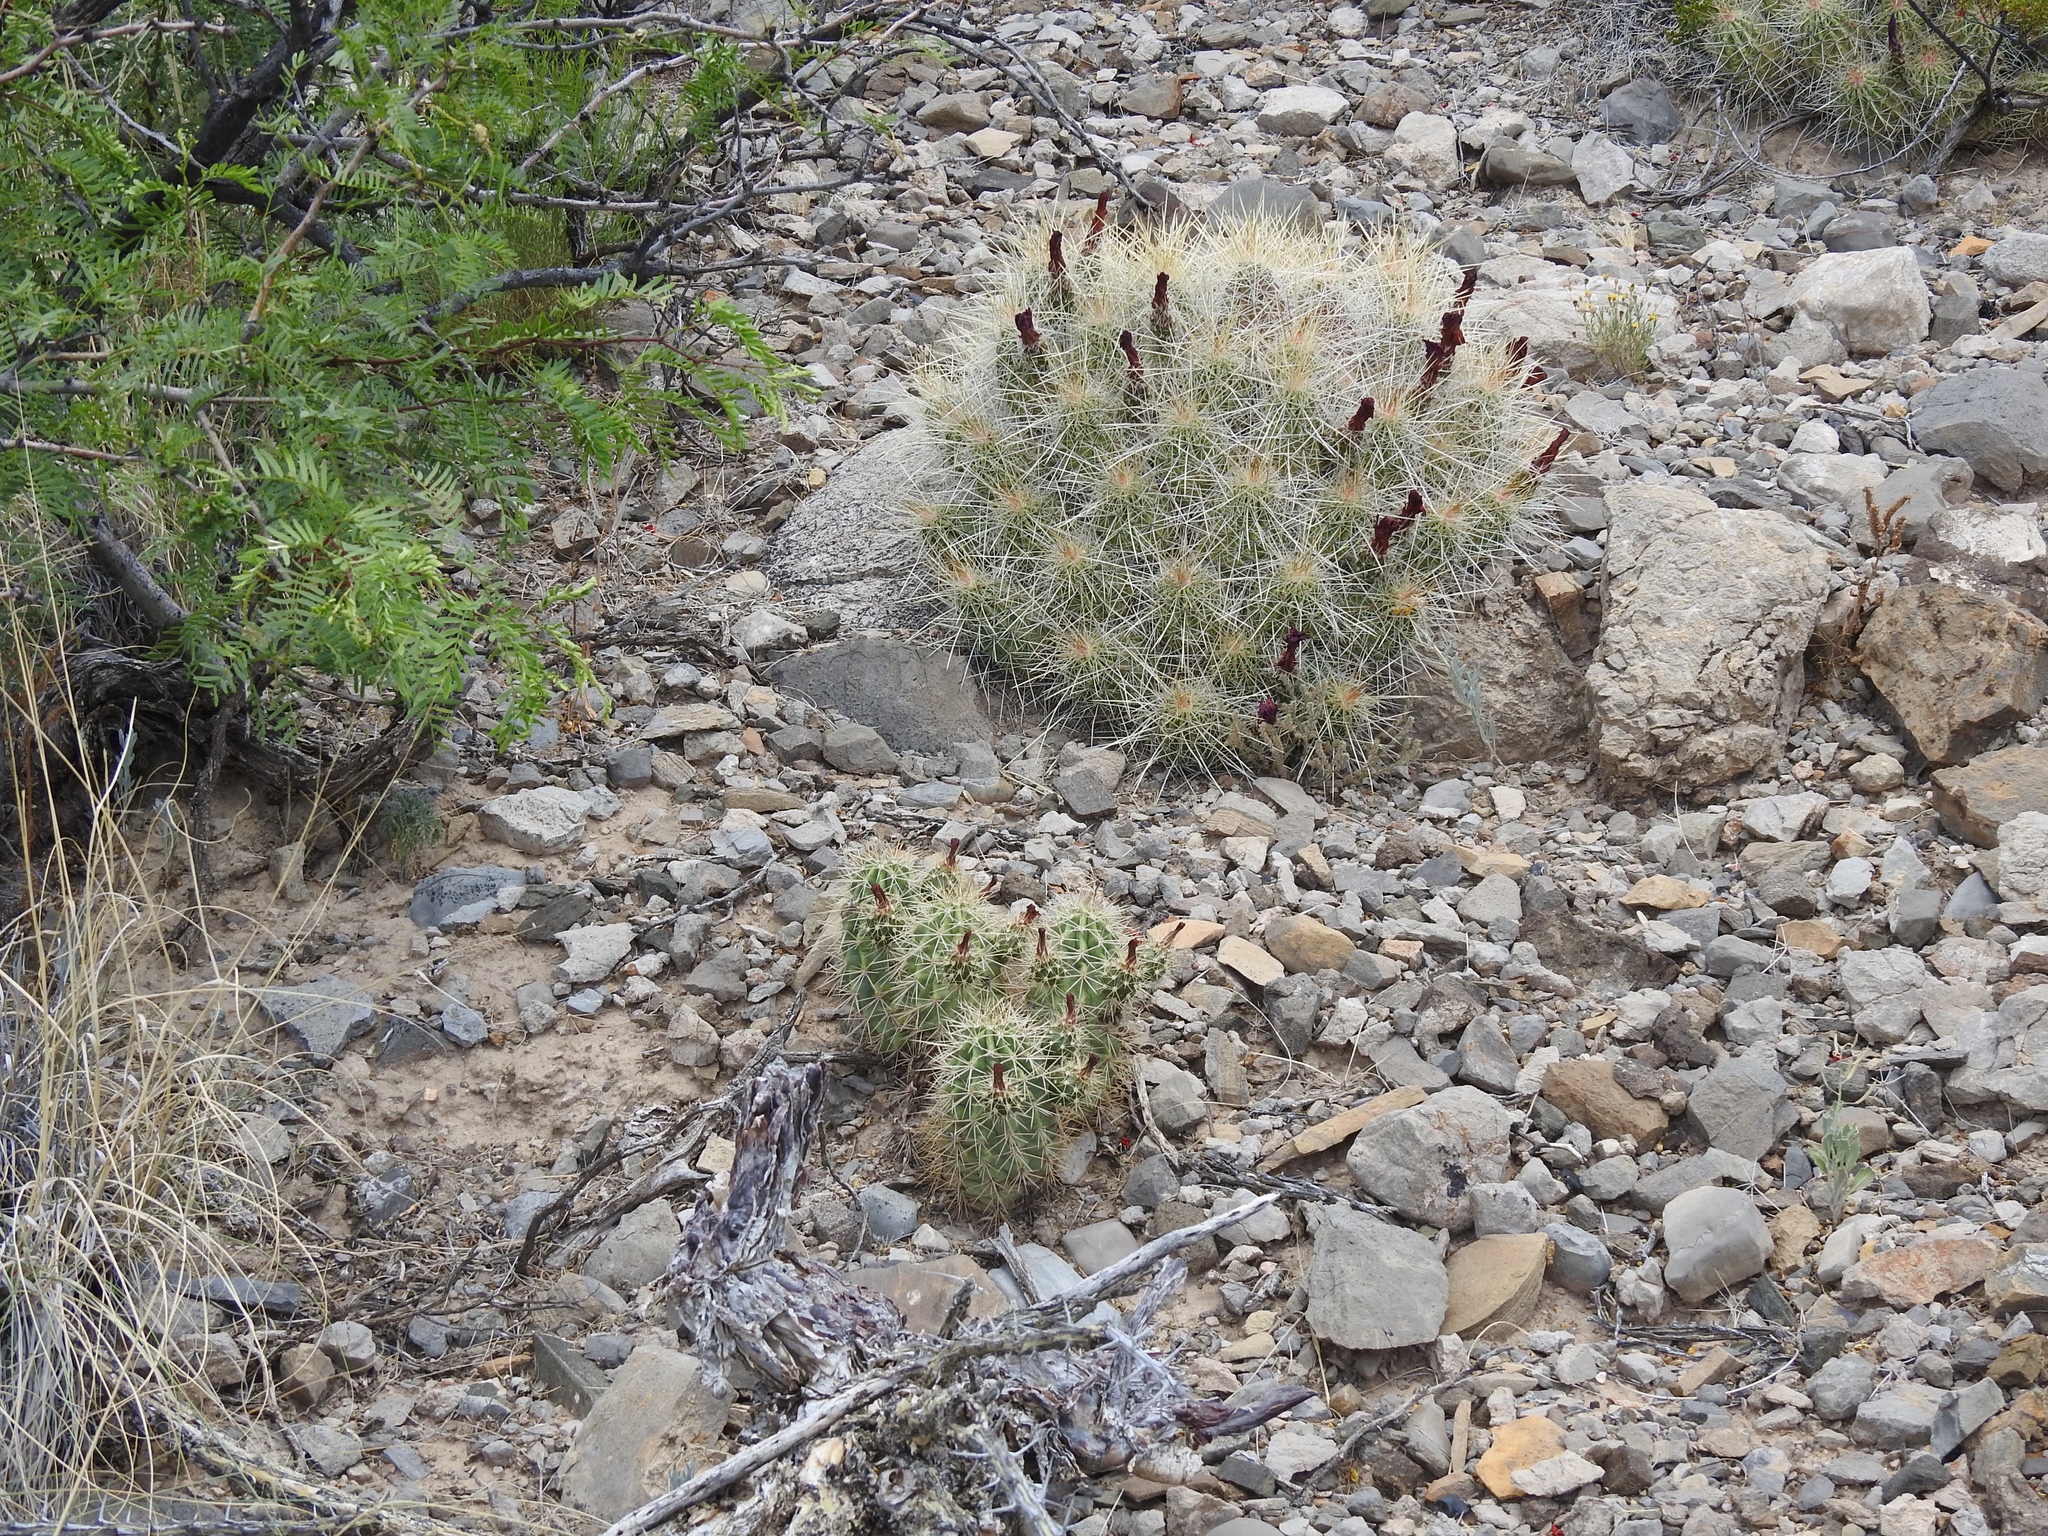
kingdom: Plantae
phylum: Tracheophyta
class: Magnoliopsida
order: Caryophyllales
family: Cactaceae
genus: Echinocereus
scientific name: Echinocereus coccineus
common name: Scarlet hedgehog cactus
